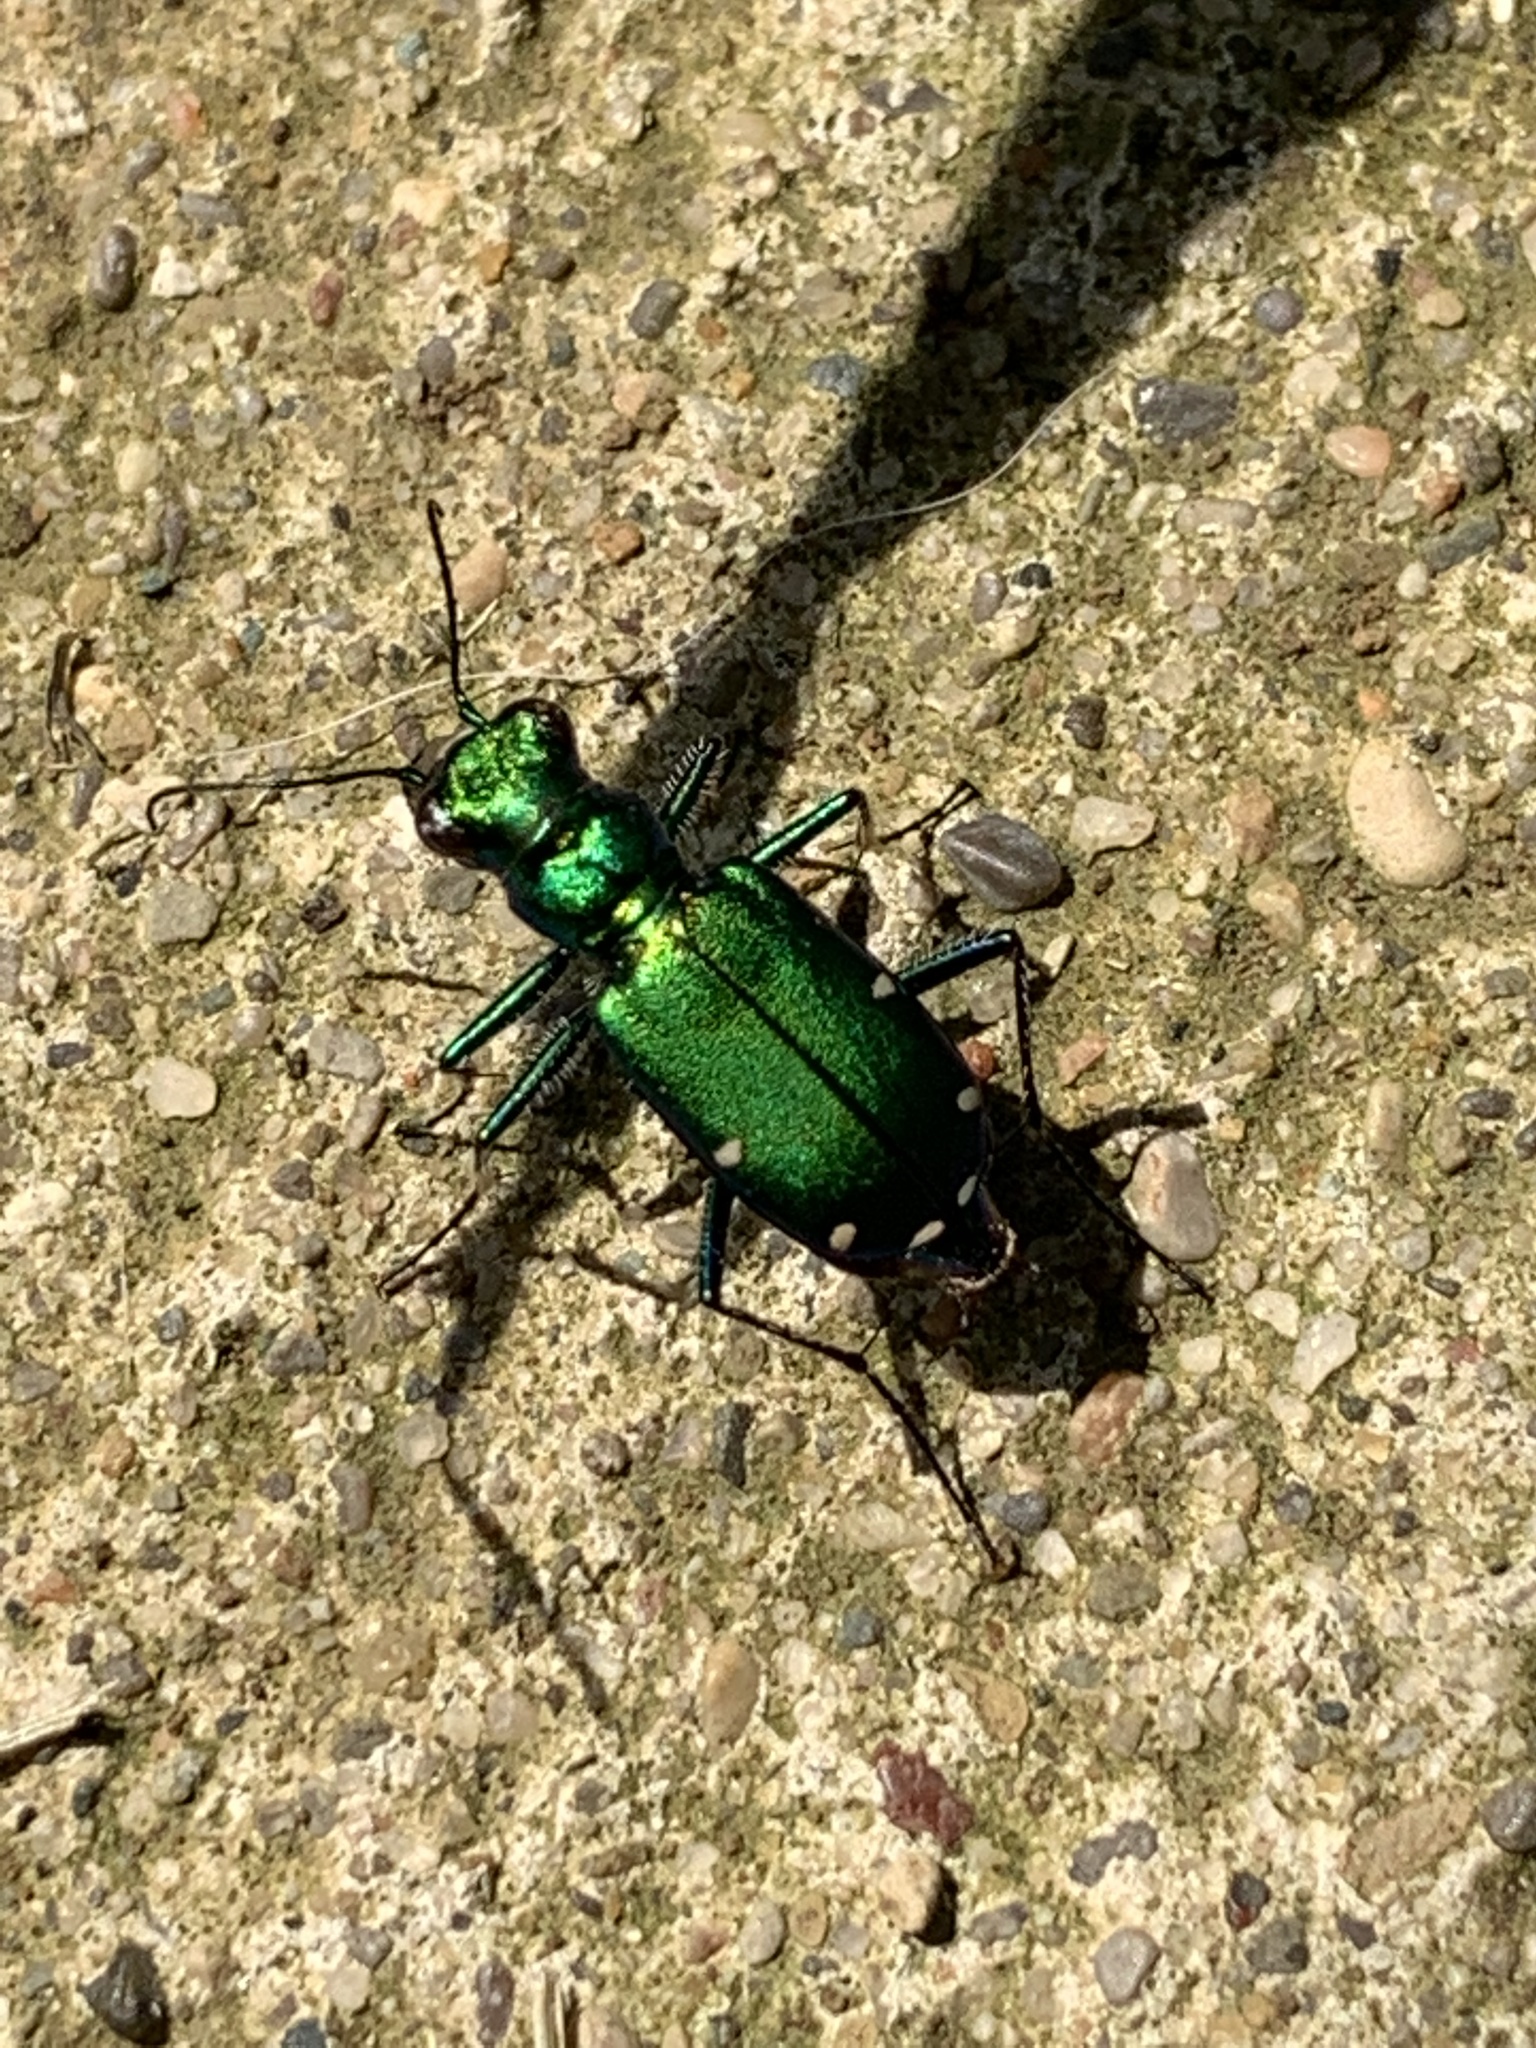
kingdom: Animalia
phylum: Arthropoda
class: Insecta
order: Coleoptera
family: Carabidae
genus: Cicindela
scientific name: Cicindela sexguttata
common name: Six-spotted tiger beetle
